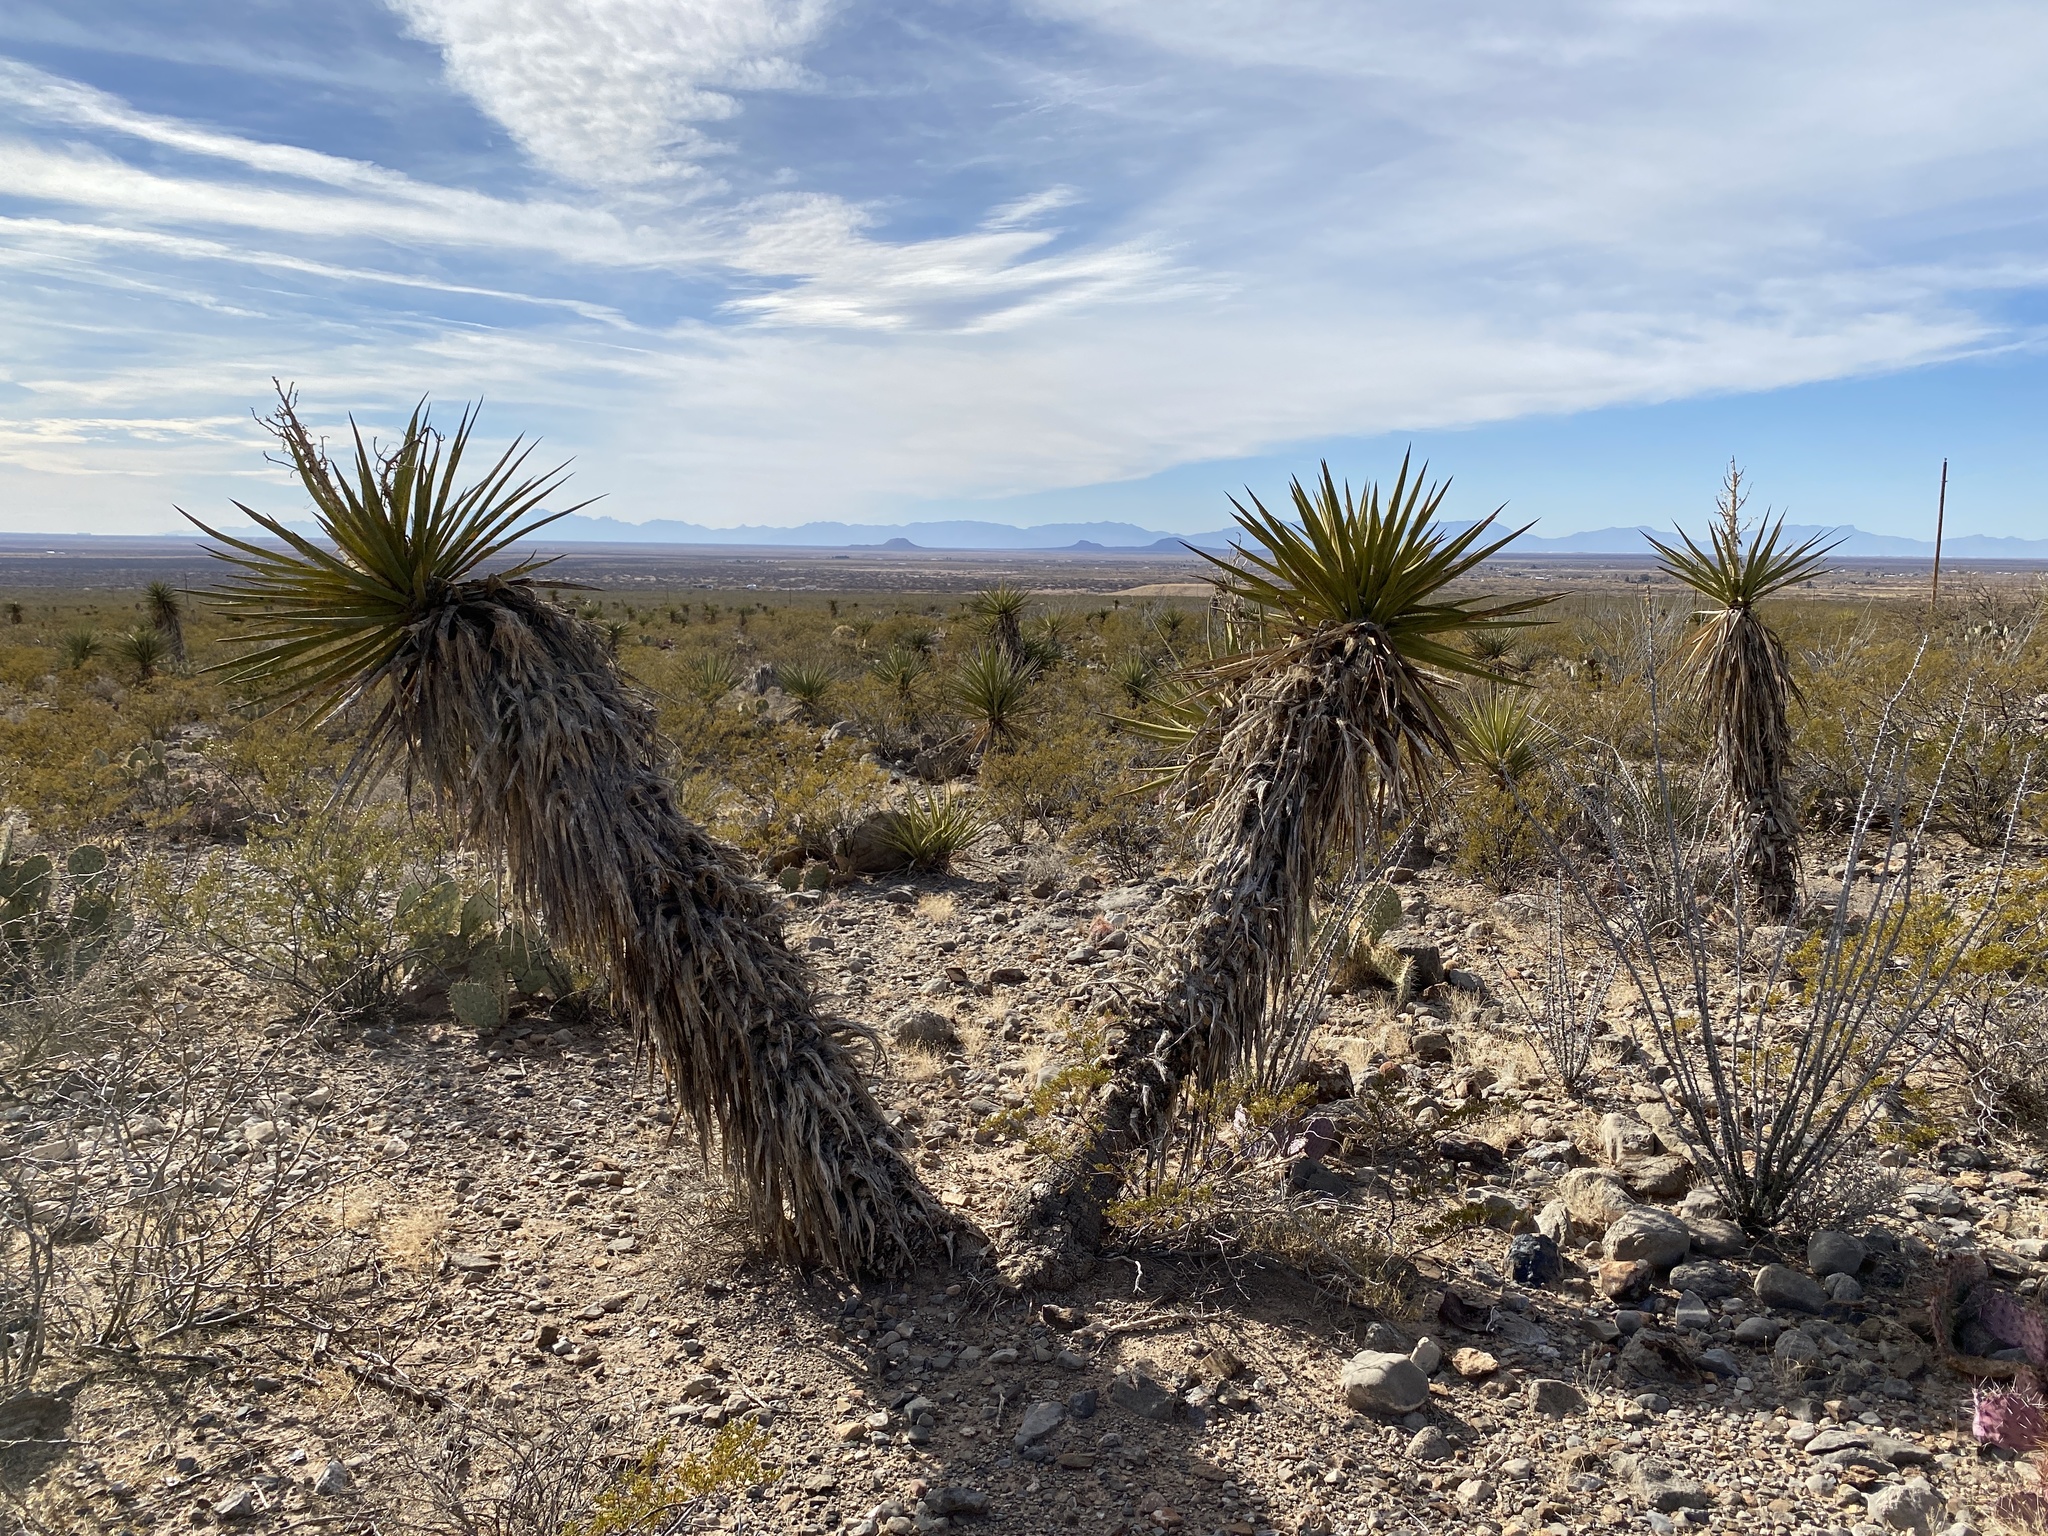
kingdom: Plantae
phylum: Tracheophyta
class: Liliopsida
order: Asparagales
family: Asparagaceae
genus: Yucca
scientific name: Yucca treculiana
